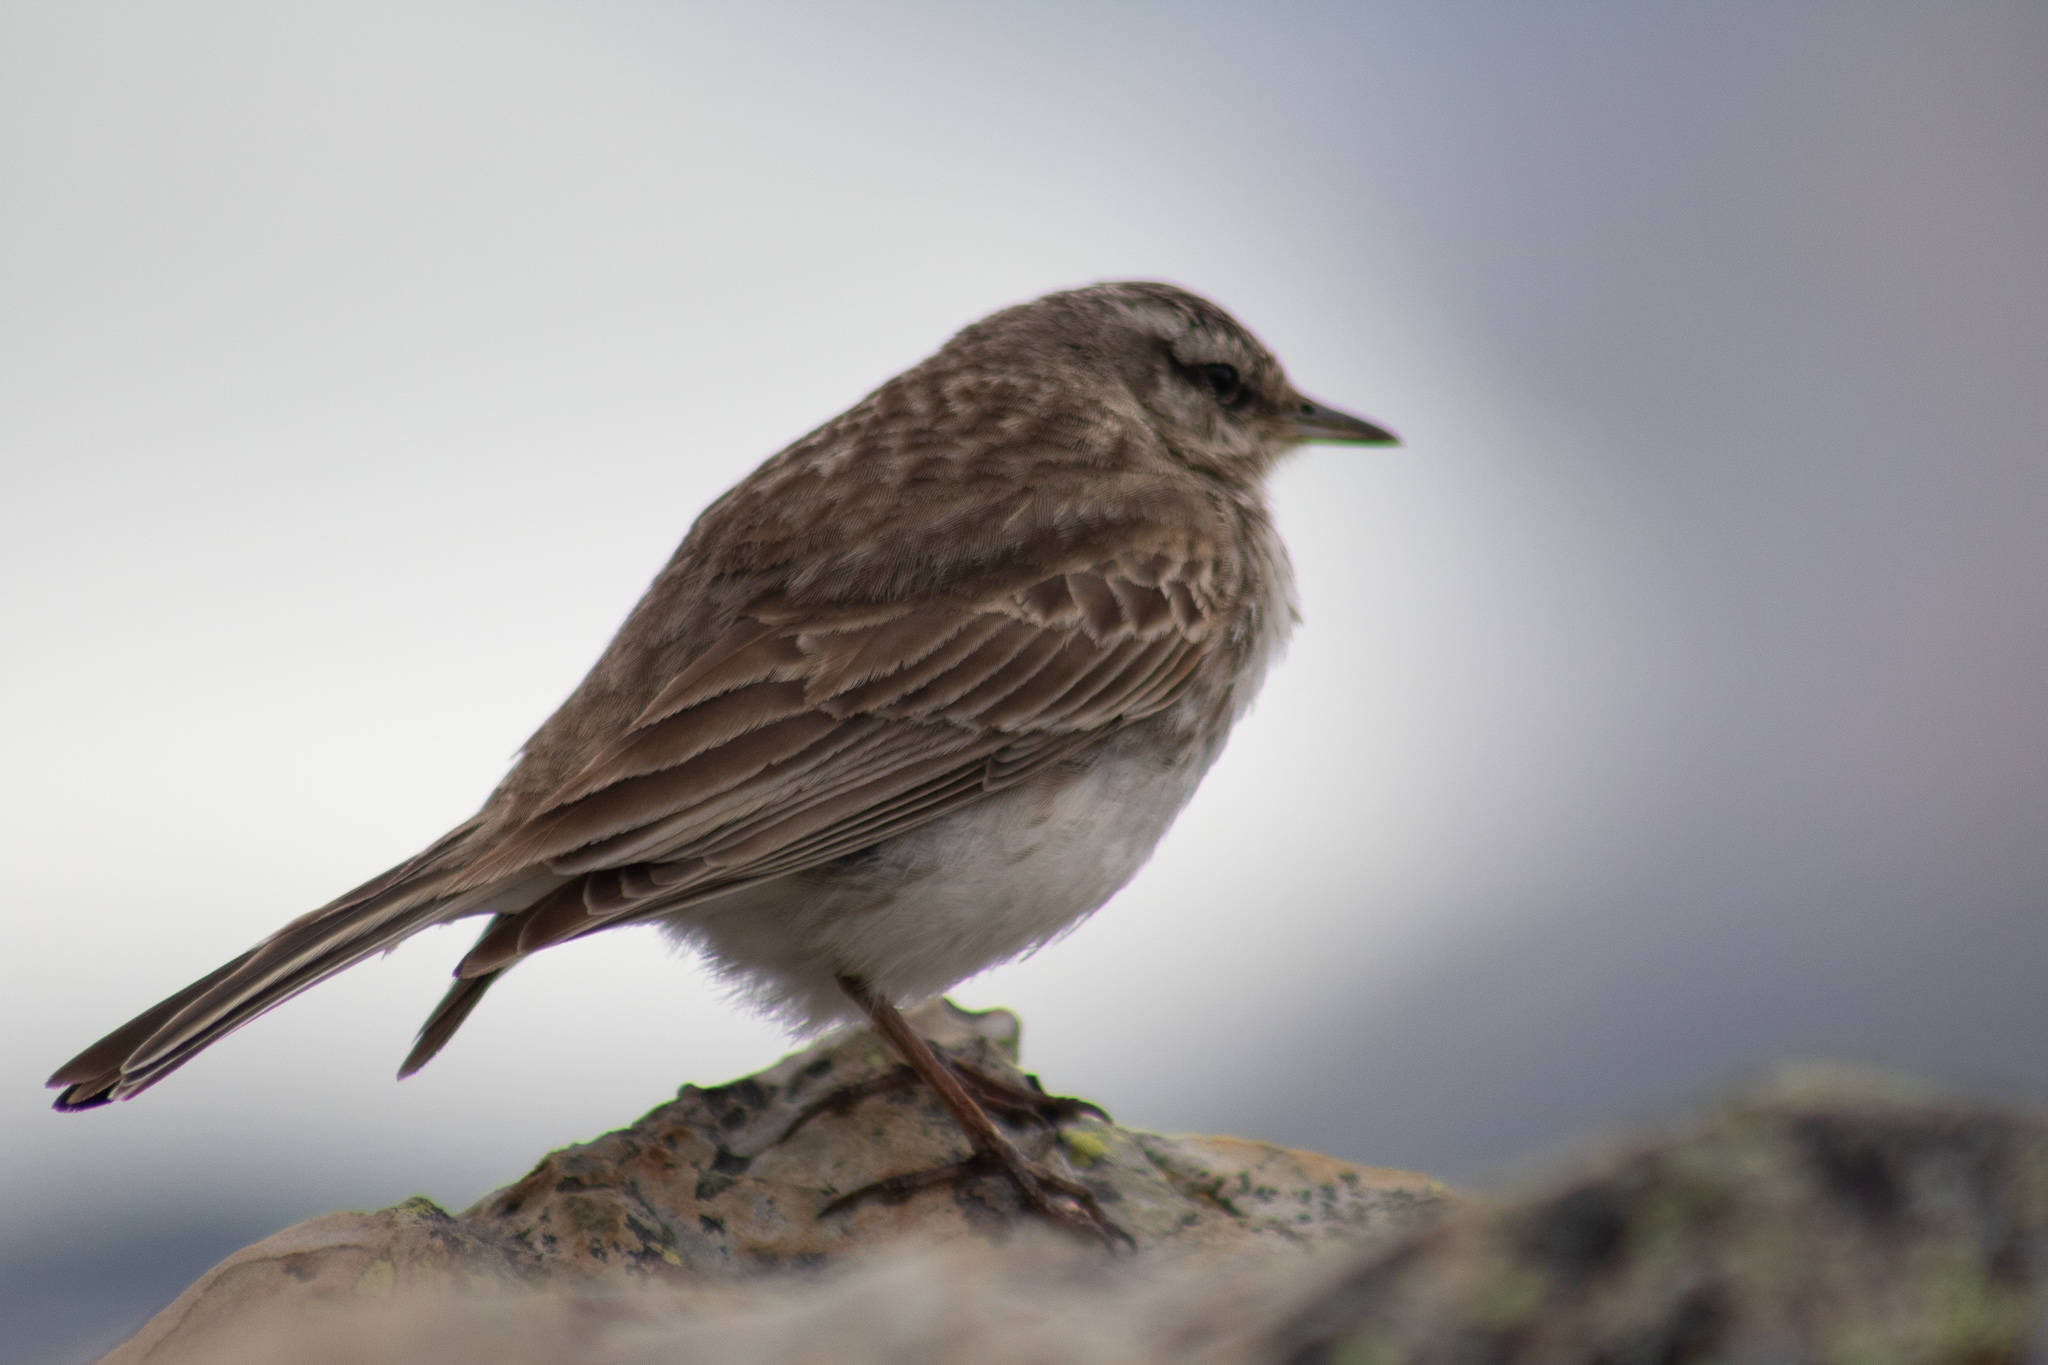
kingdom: Animalia
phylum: Chordata
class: Aves
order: Passeriformes
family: Motacillidae
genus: Anthus
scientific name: Anthus novaeseelandiae
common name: New zealand pipit
